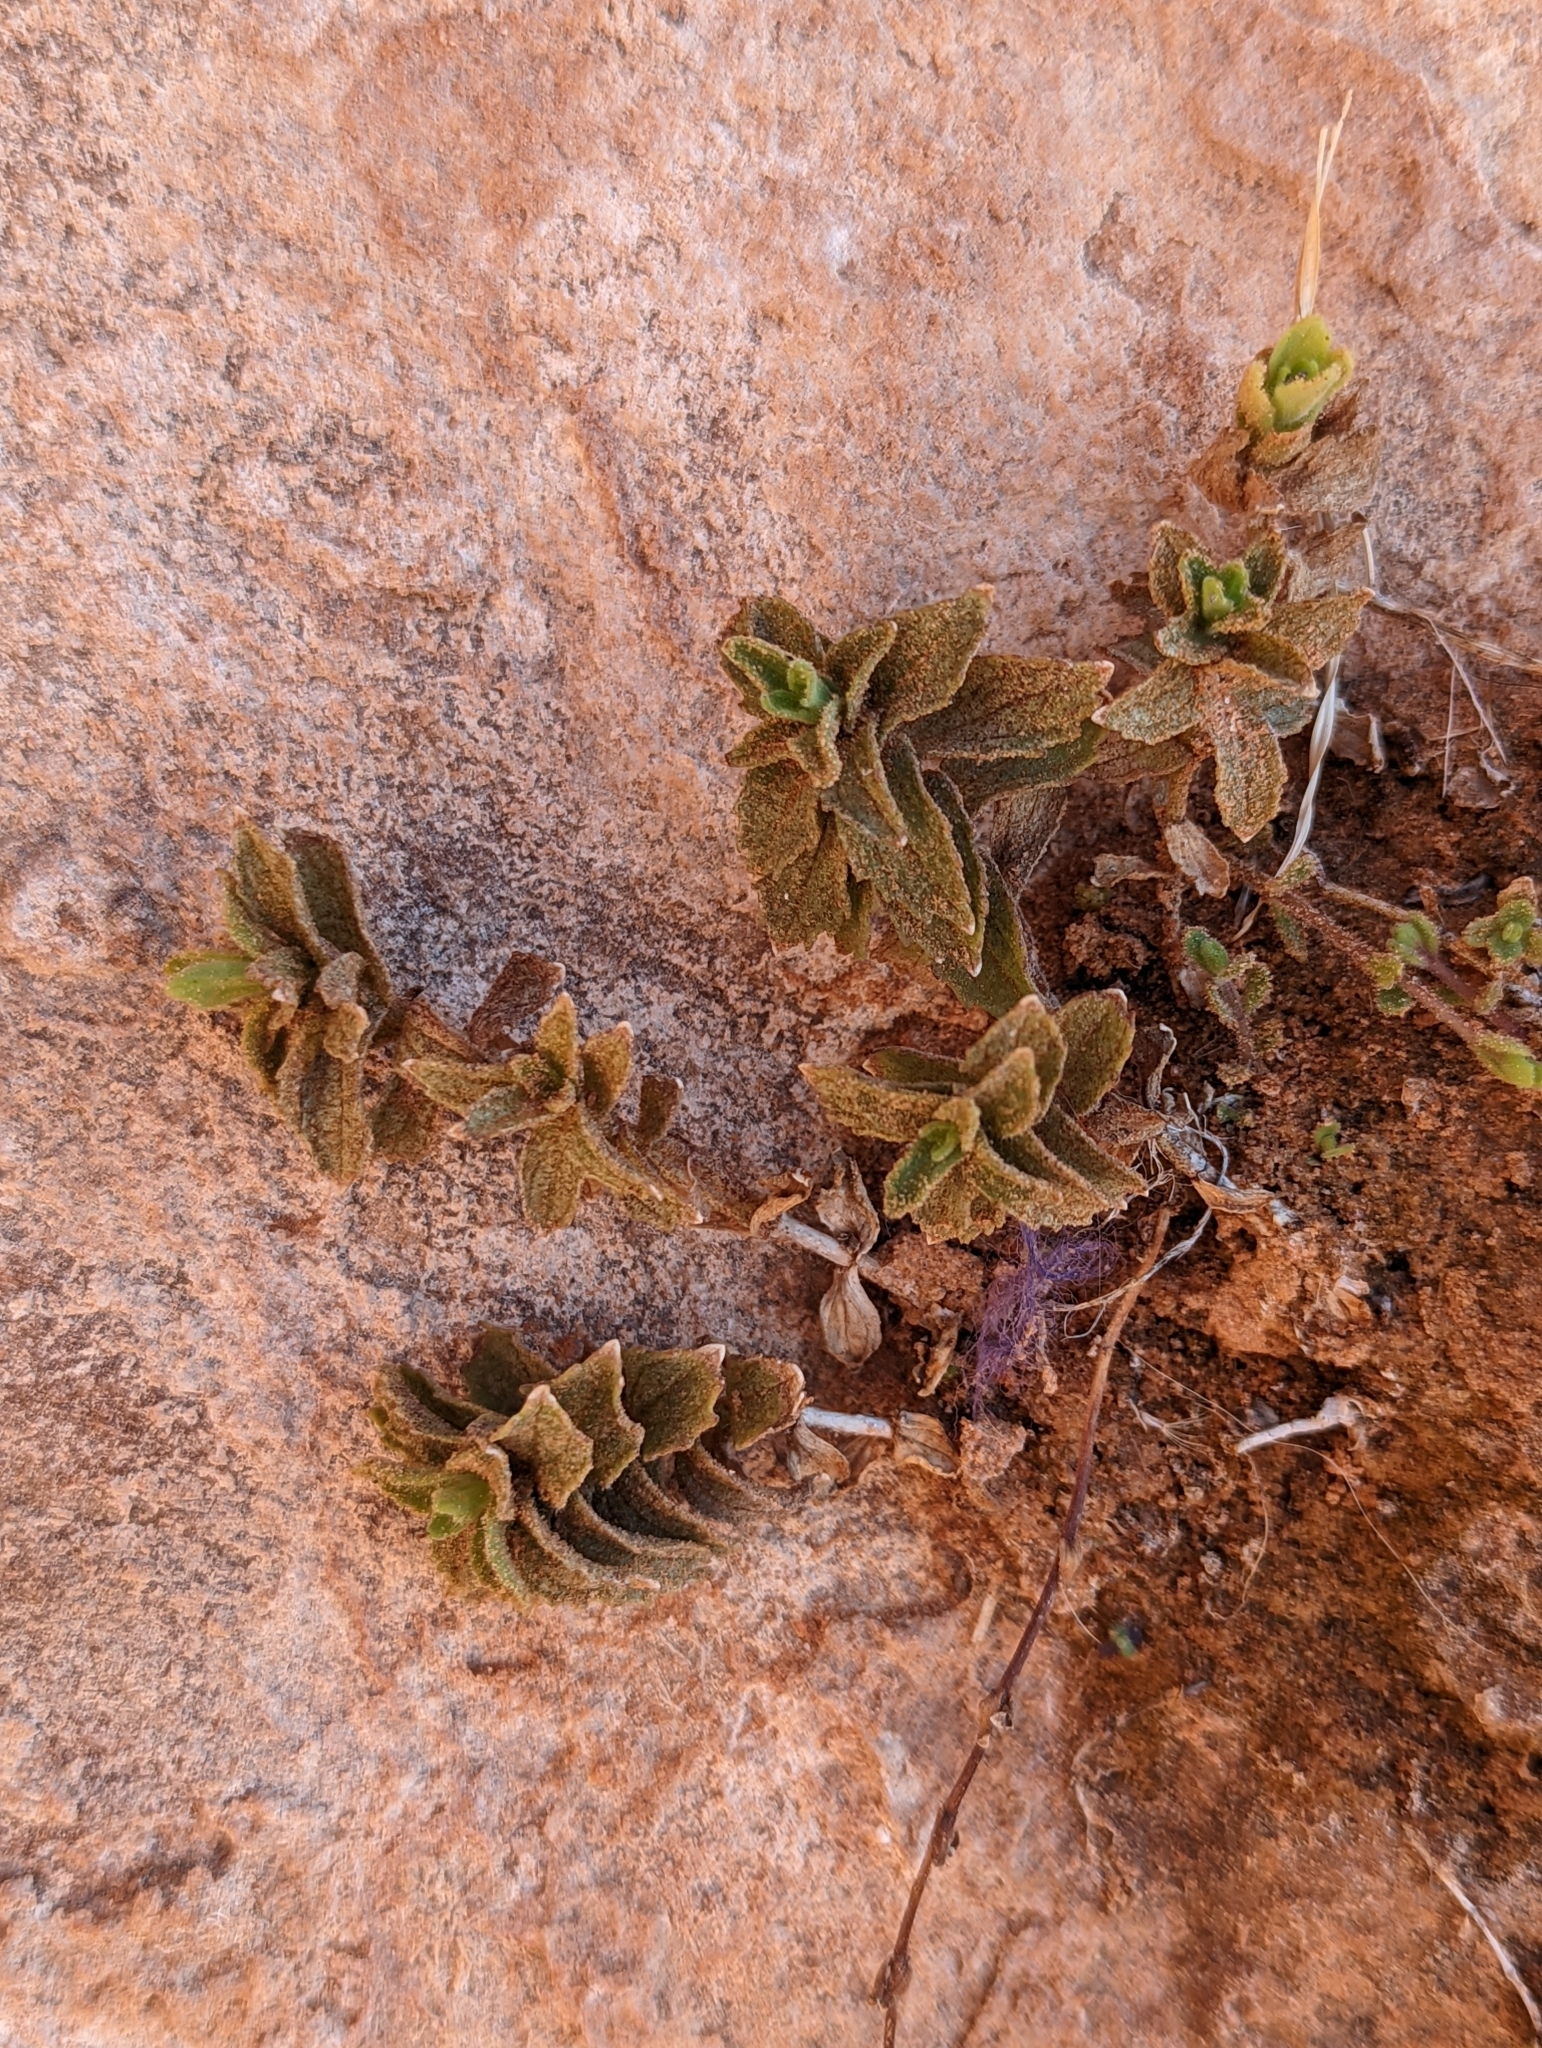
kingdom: Plantae
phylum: Tracheophyta
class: Magnoliopsida
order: Lamiales
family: Phrymaceae
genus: Erythranthe
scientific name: Erythranthe eastwoodiae
